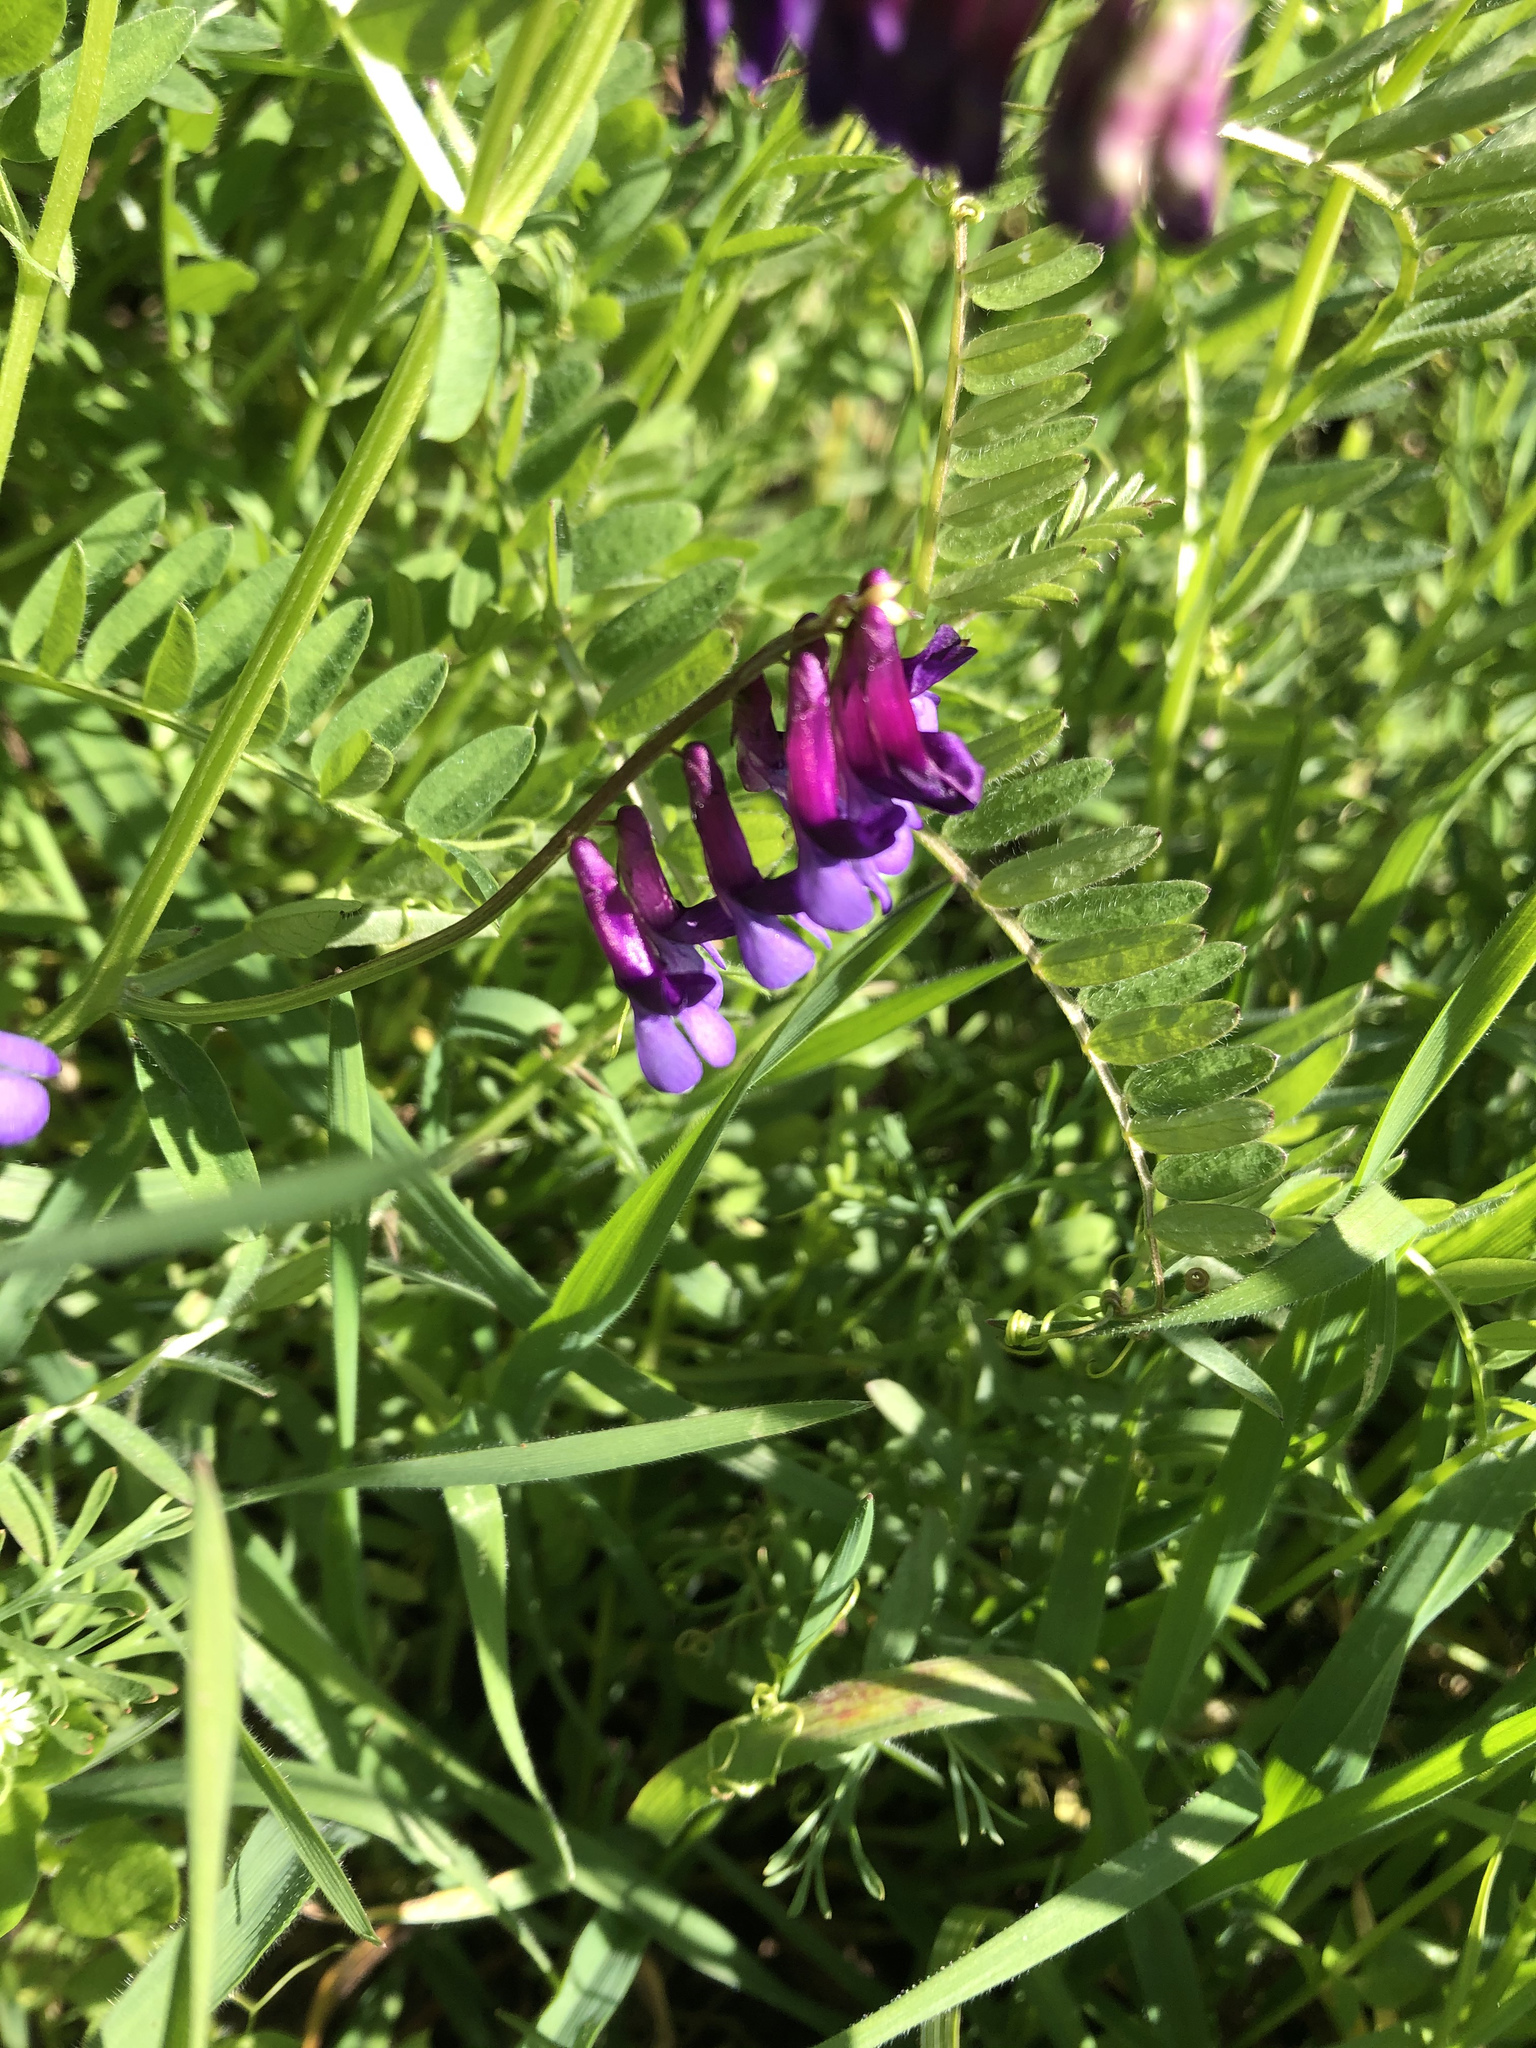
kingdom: Plantae
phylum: Tracheophyta
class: Magnoliopsida
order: Fabales
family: Fabaceae
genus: Vicia
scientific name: Vicia villosa
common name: Fodder vetch
